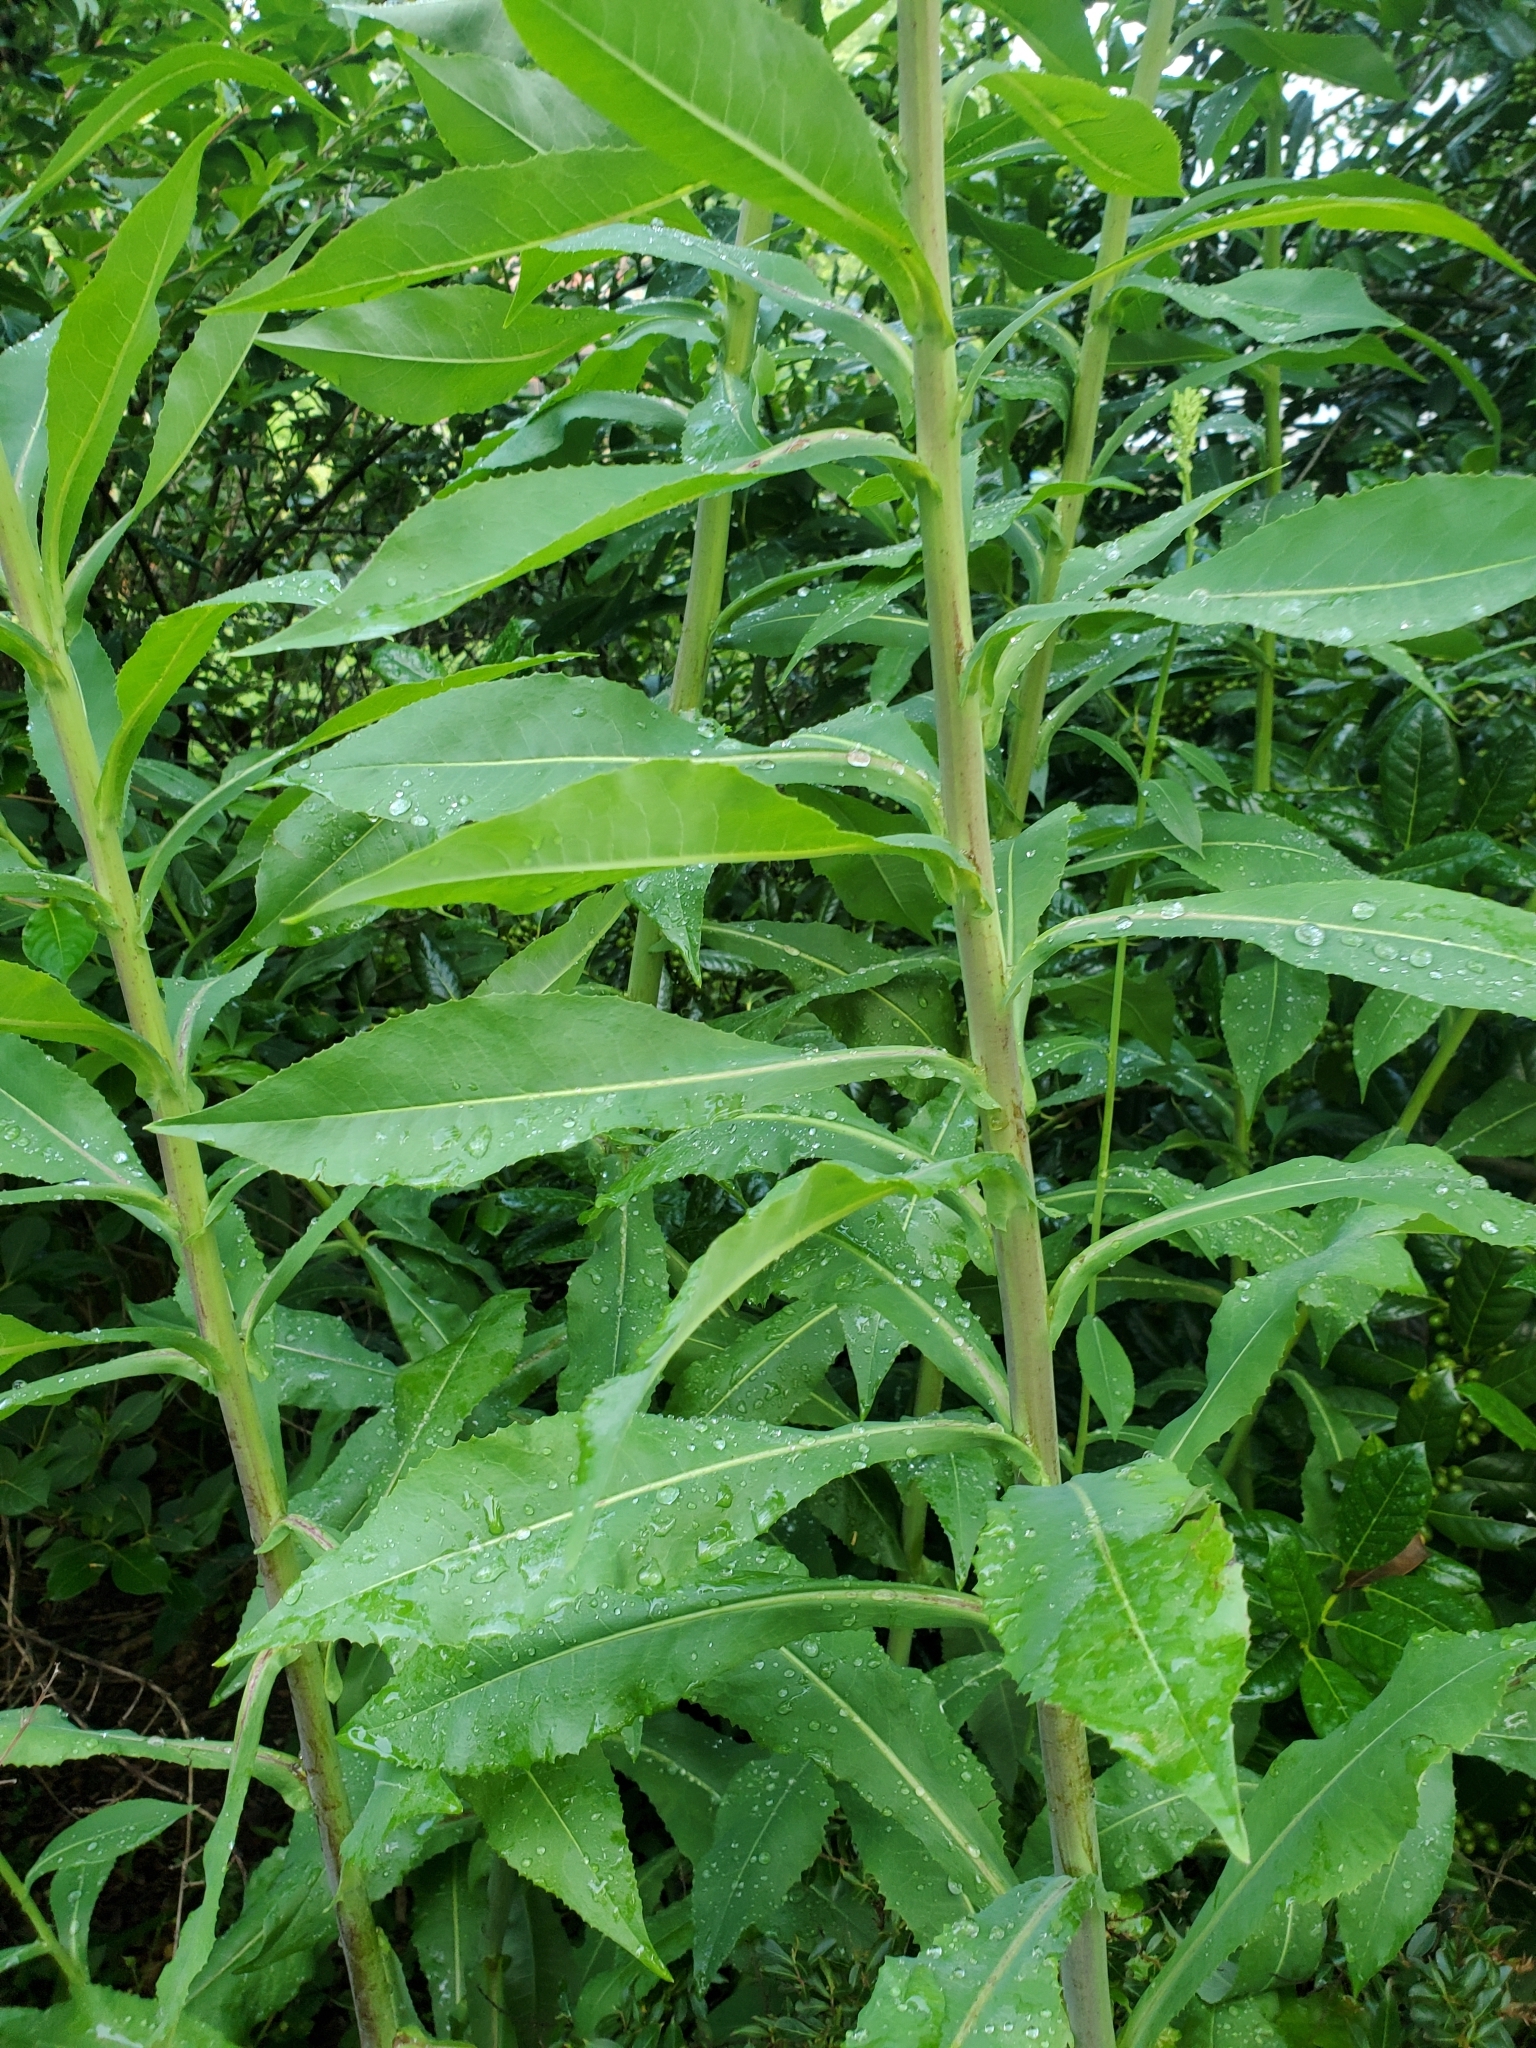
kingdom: Plantae
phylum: Tracheophyta
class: Magnoliopsida
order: Asterales
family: Asteraceae
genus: Lactuca
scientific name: Lactuca canadensis
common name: Canada lettuce
